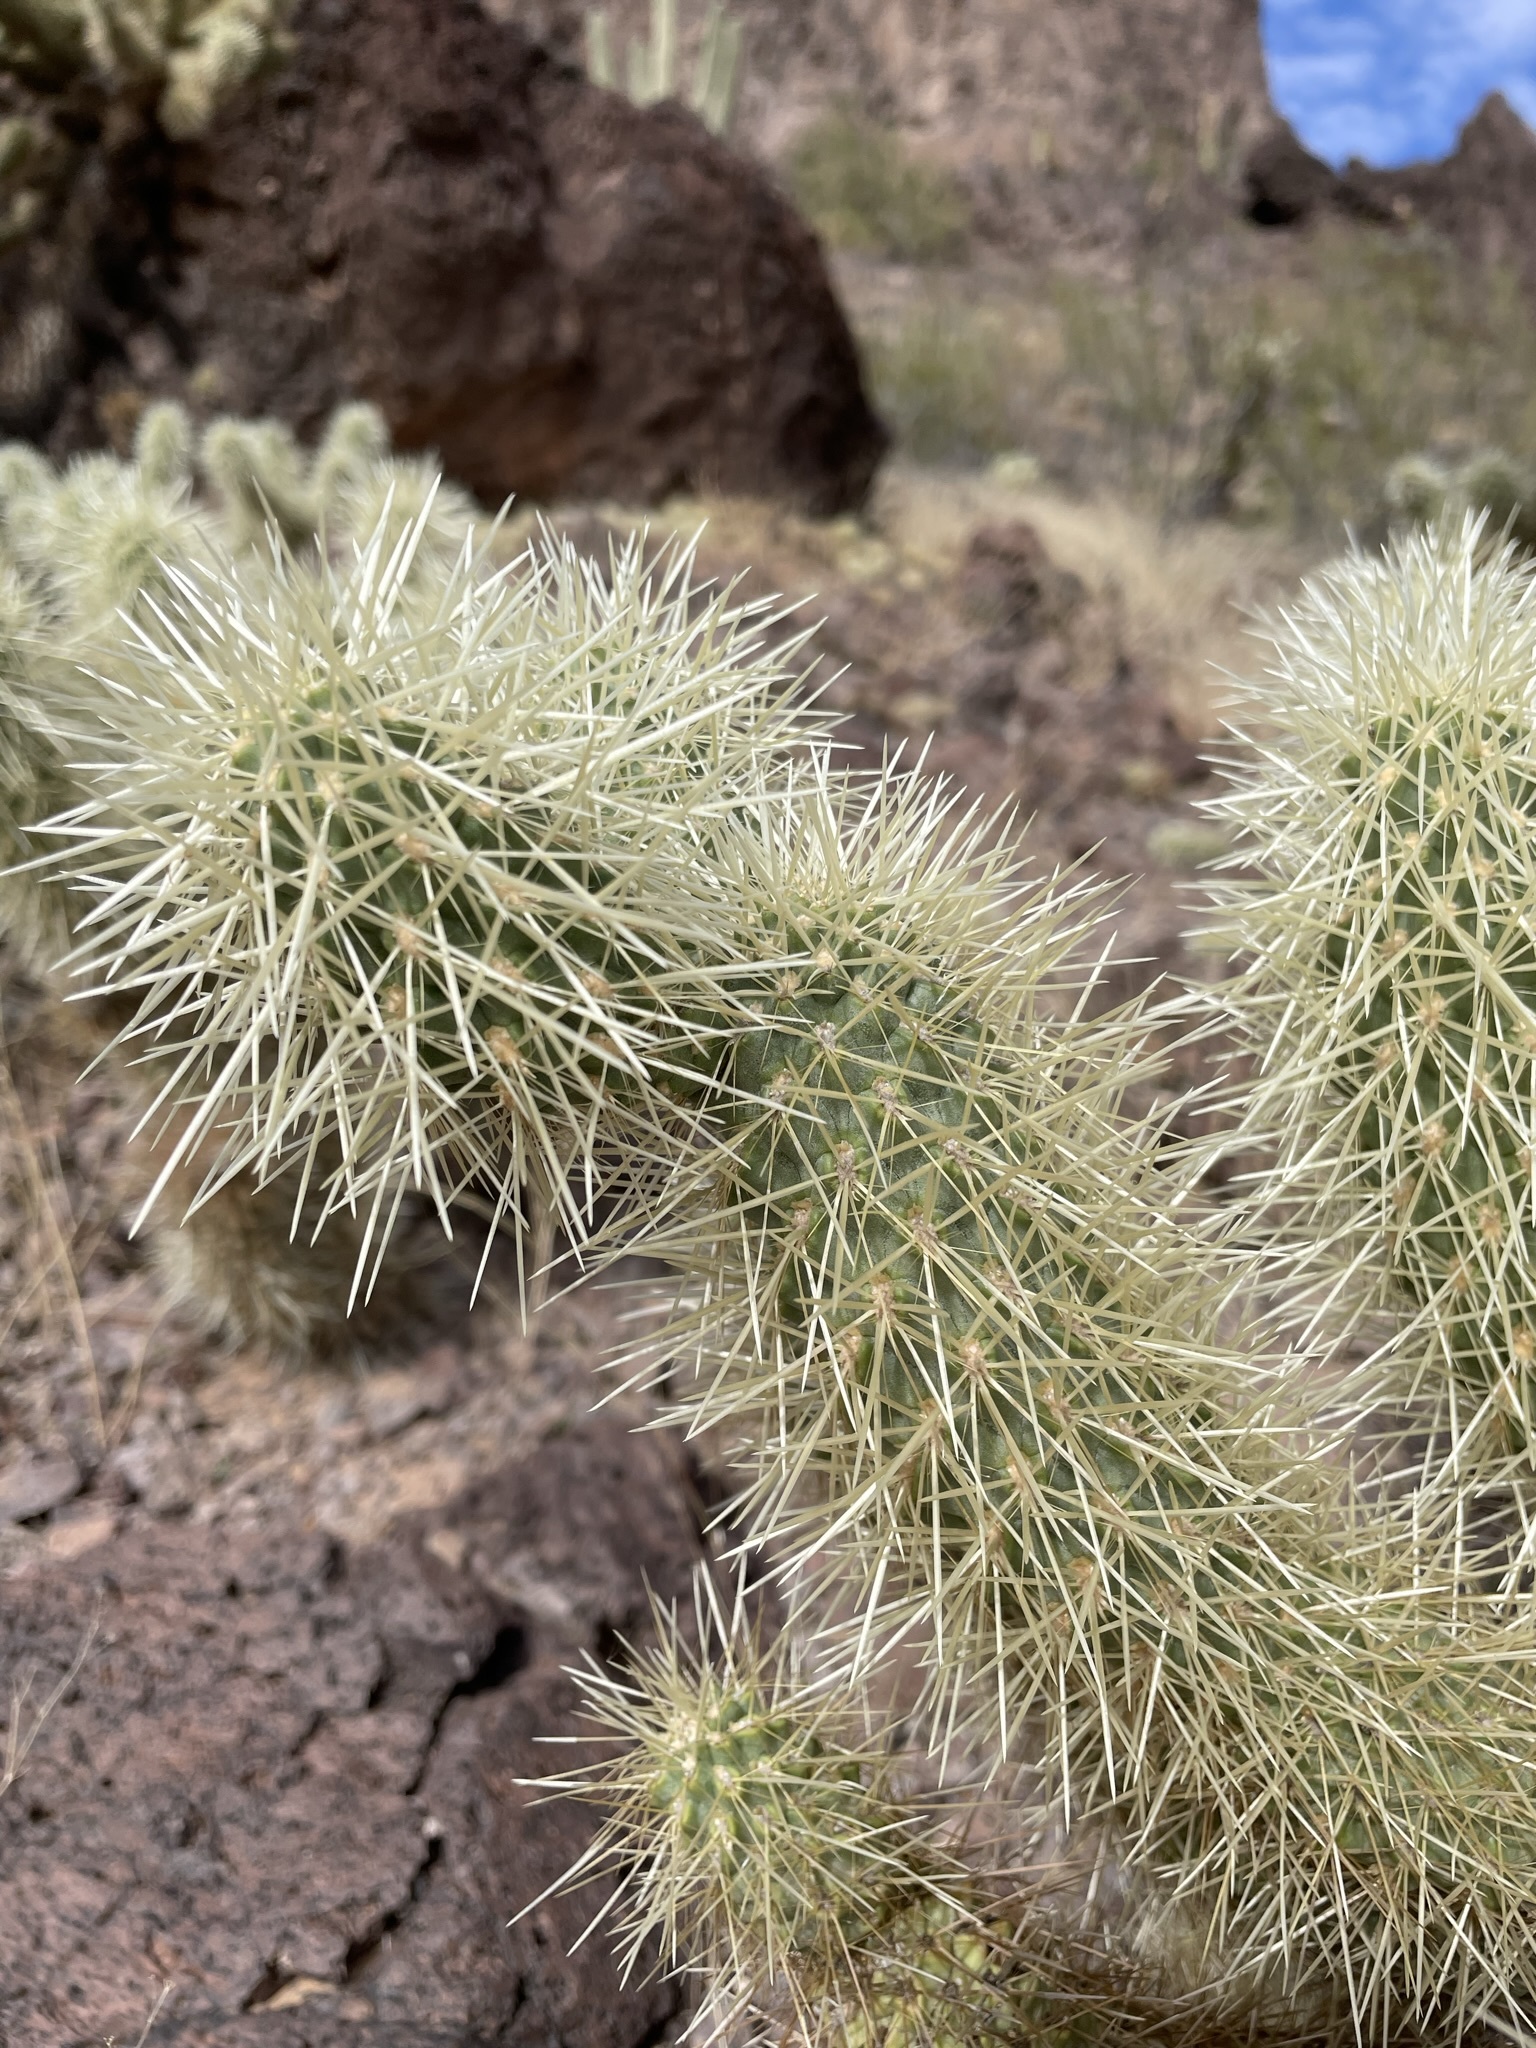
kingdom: Plantae
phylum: Tracheophyta
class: Magnoliopsida
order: Caryophyllales
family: Cactaceae
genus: Cylindropuntia
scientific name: Cylindropuntia fosbergii
